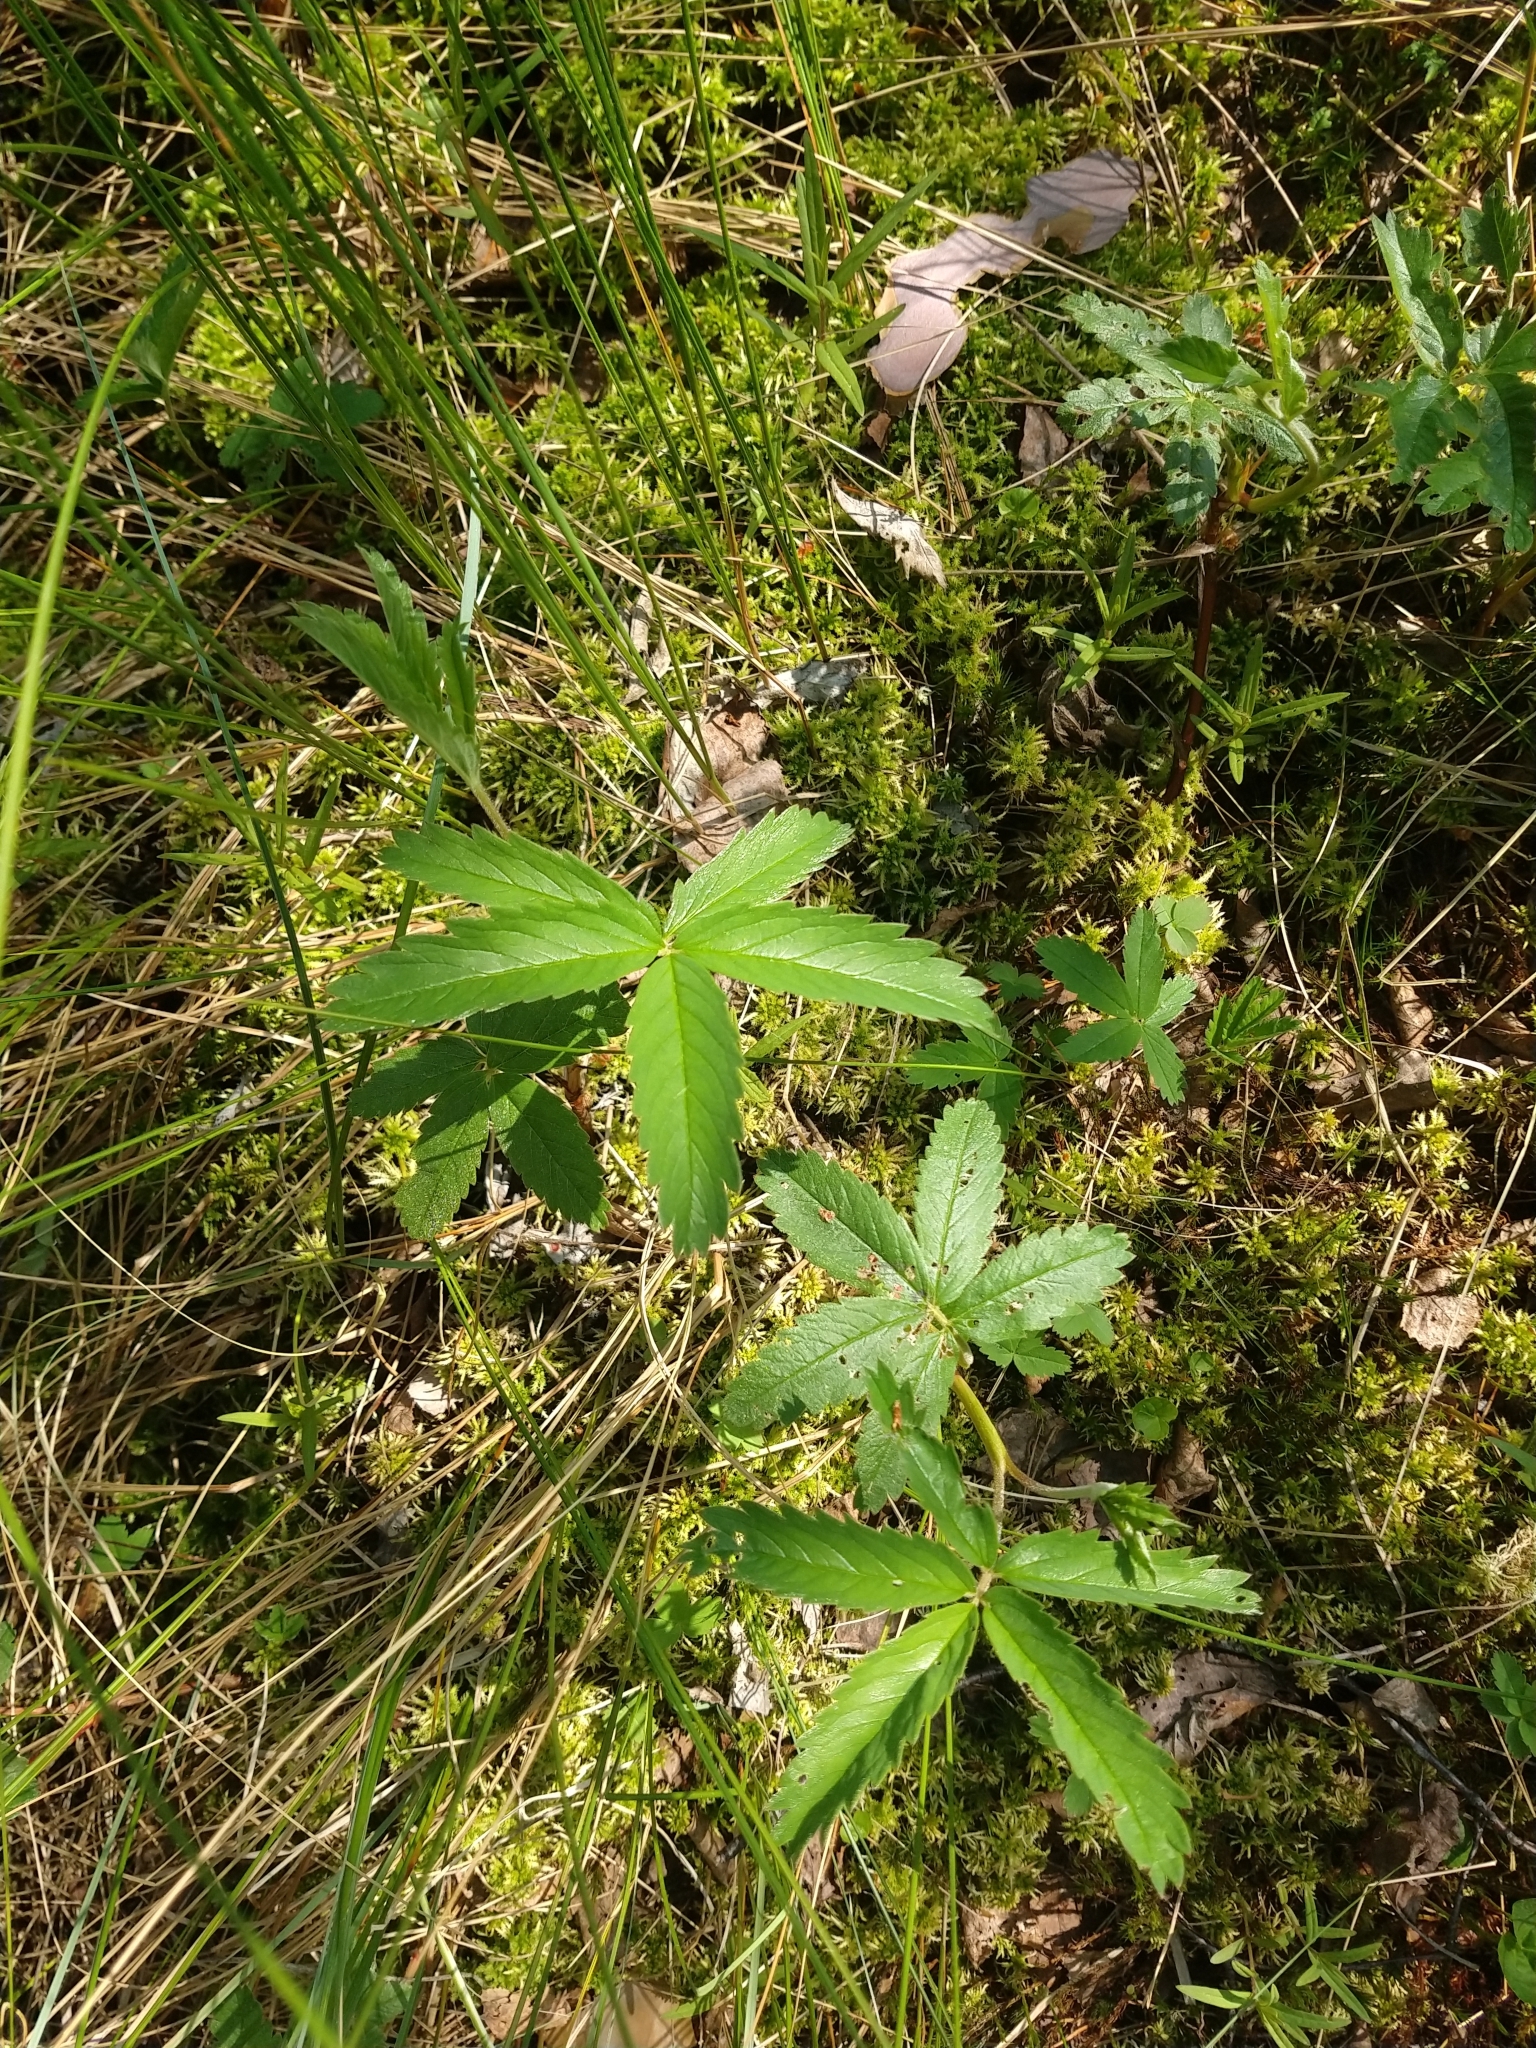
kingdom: Plantae
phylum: Tracheophyta
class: Magnoliopsida
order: Rosales
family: Rosaceae
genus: Comarum
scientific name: Comarum palustre
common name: Marsh cinquefoil
